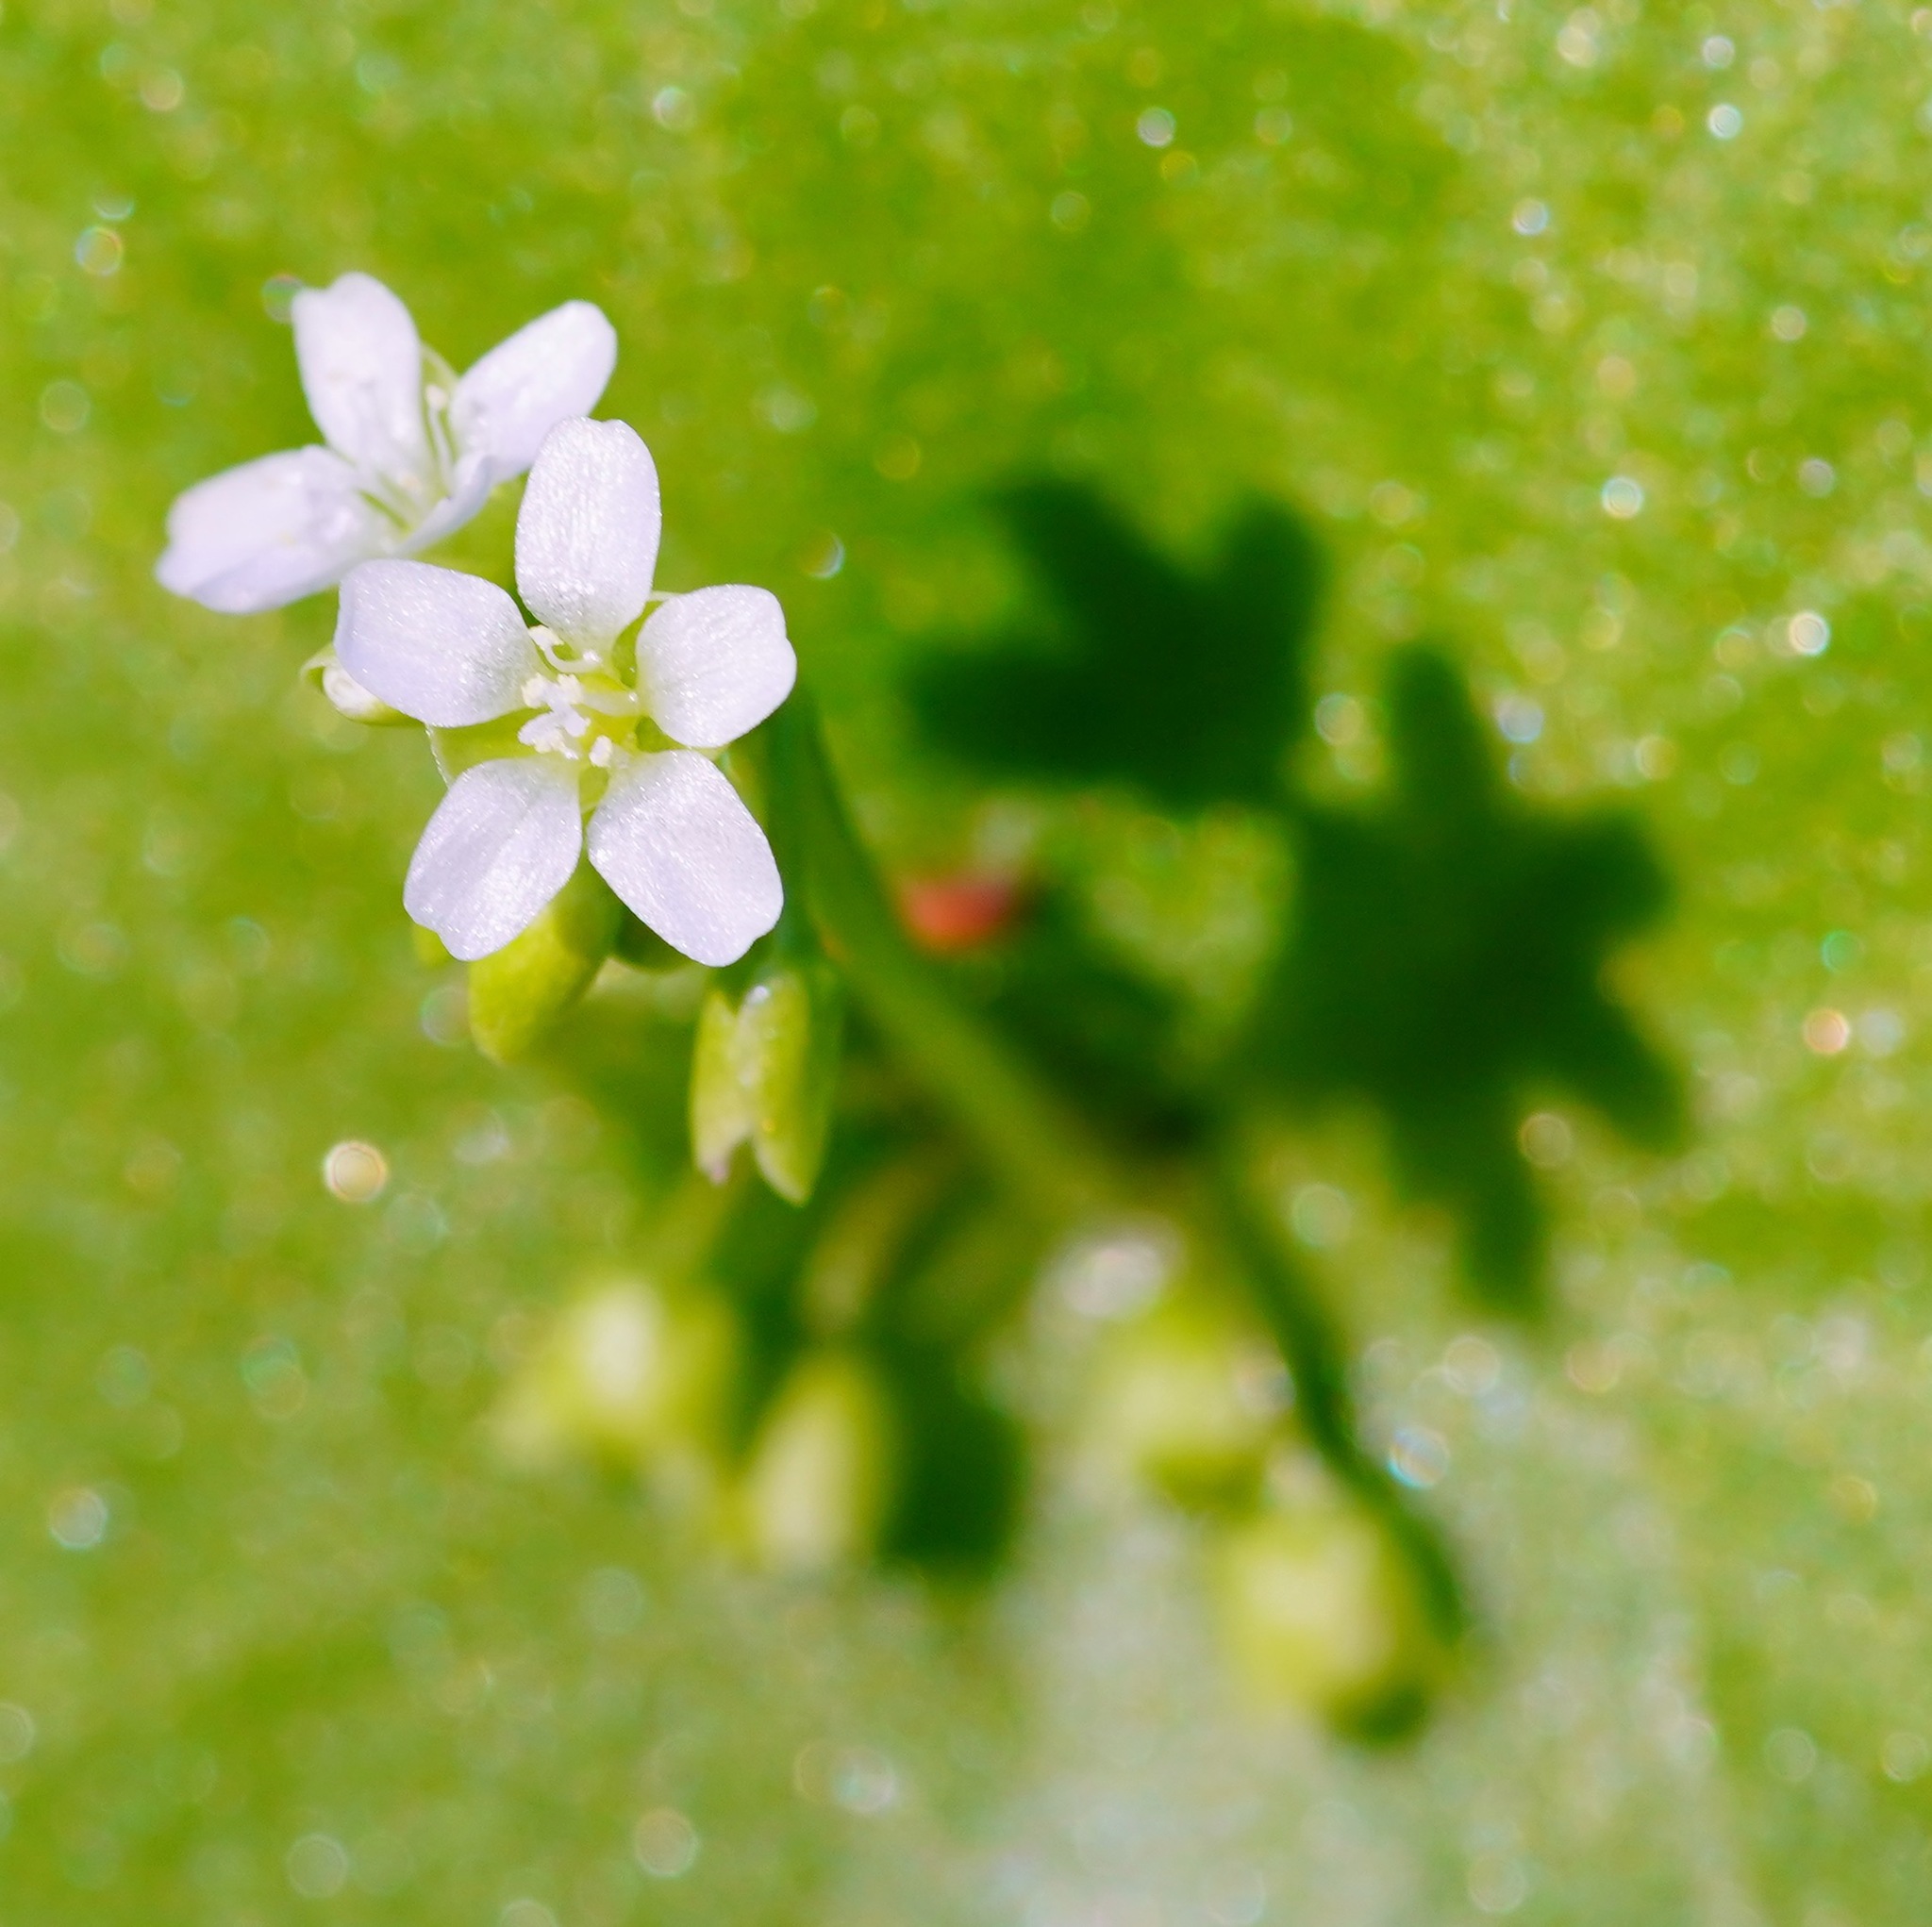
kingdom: Plantae
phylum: Tracheophyta
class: Magnoliopsida
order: Caryophyllales
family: Montiaceae
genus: Claytonia
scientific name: Claytonia perfoliata
